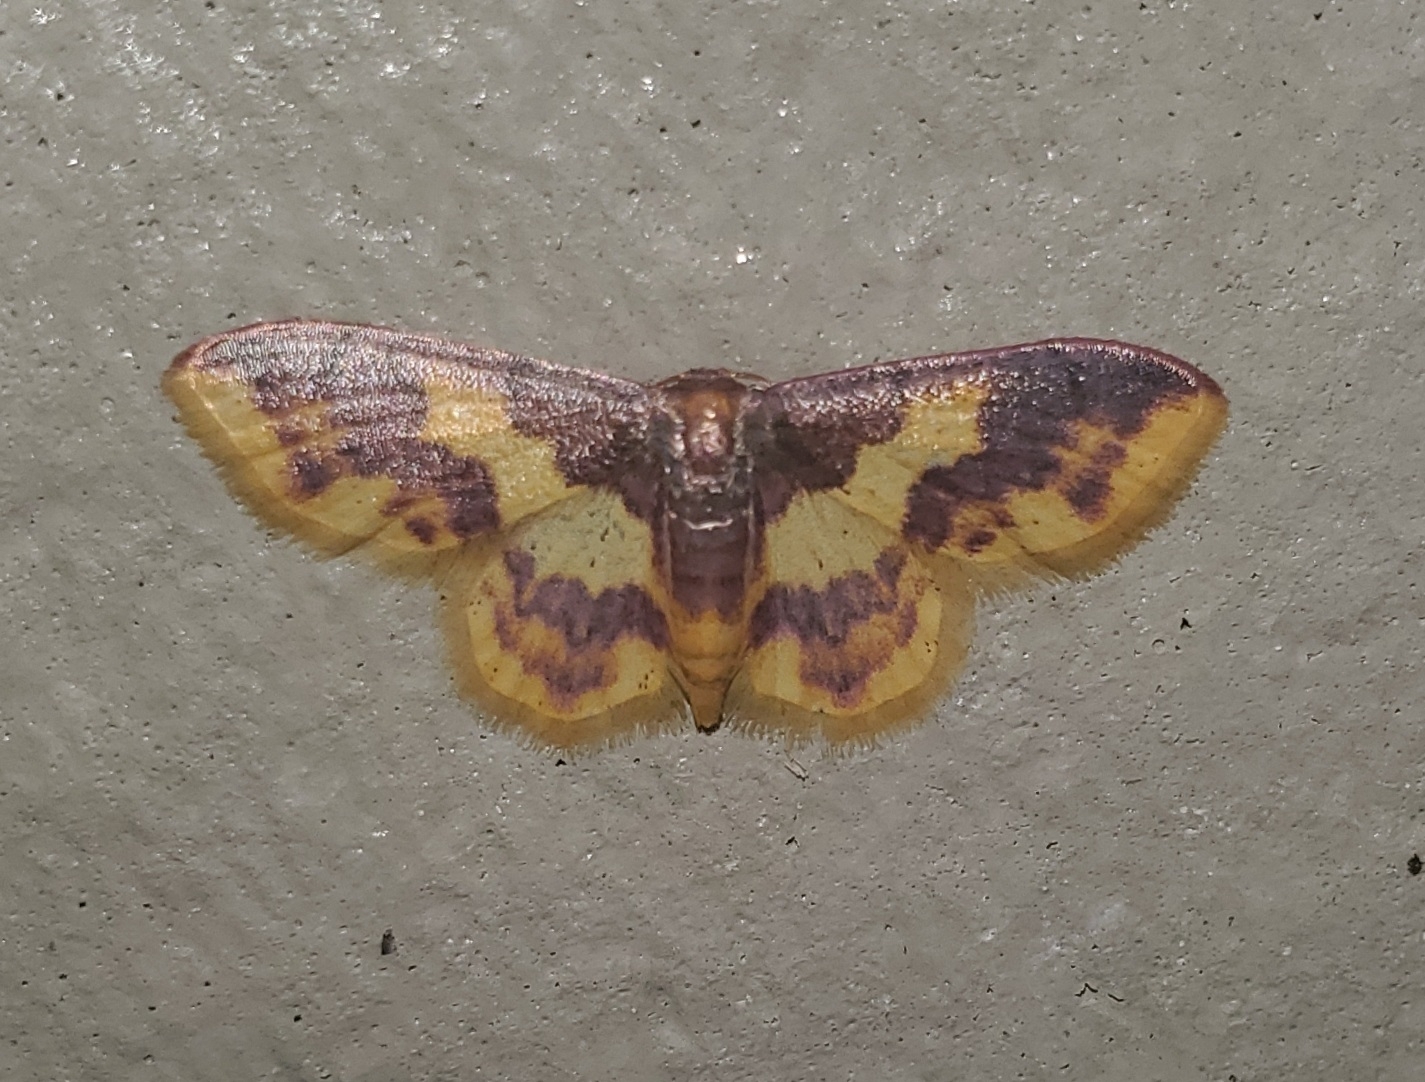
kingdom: Animalia
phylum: Arthropoda
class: Insecta
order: Lepidoptera
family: Geometridae
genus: Lophosis
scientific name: Lophosis labeculata
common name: Stained lophosis moth
